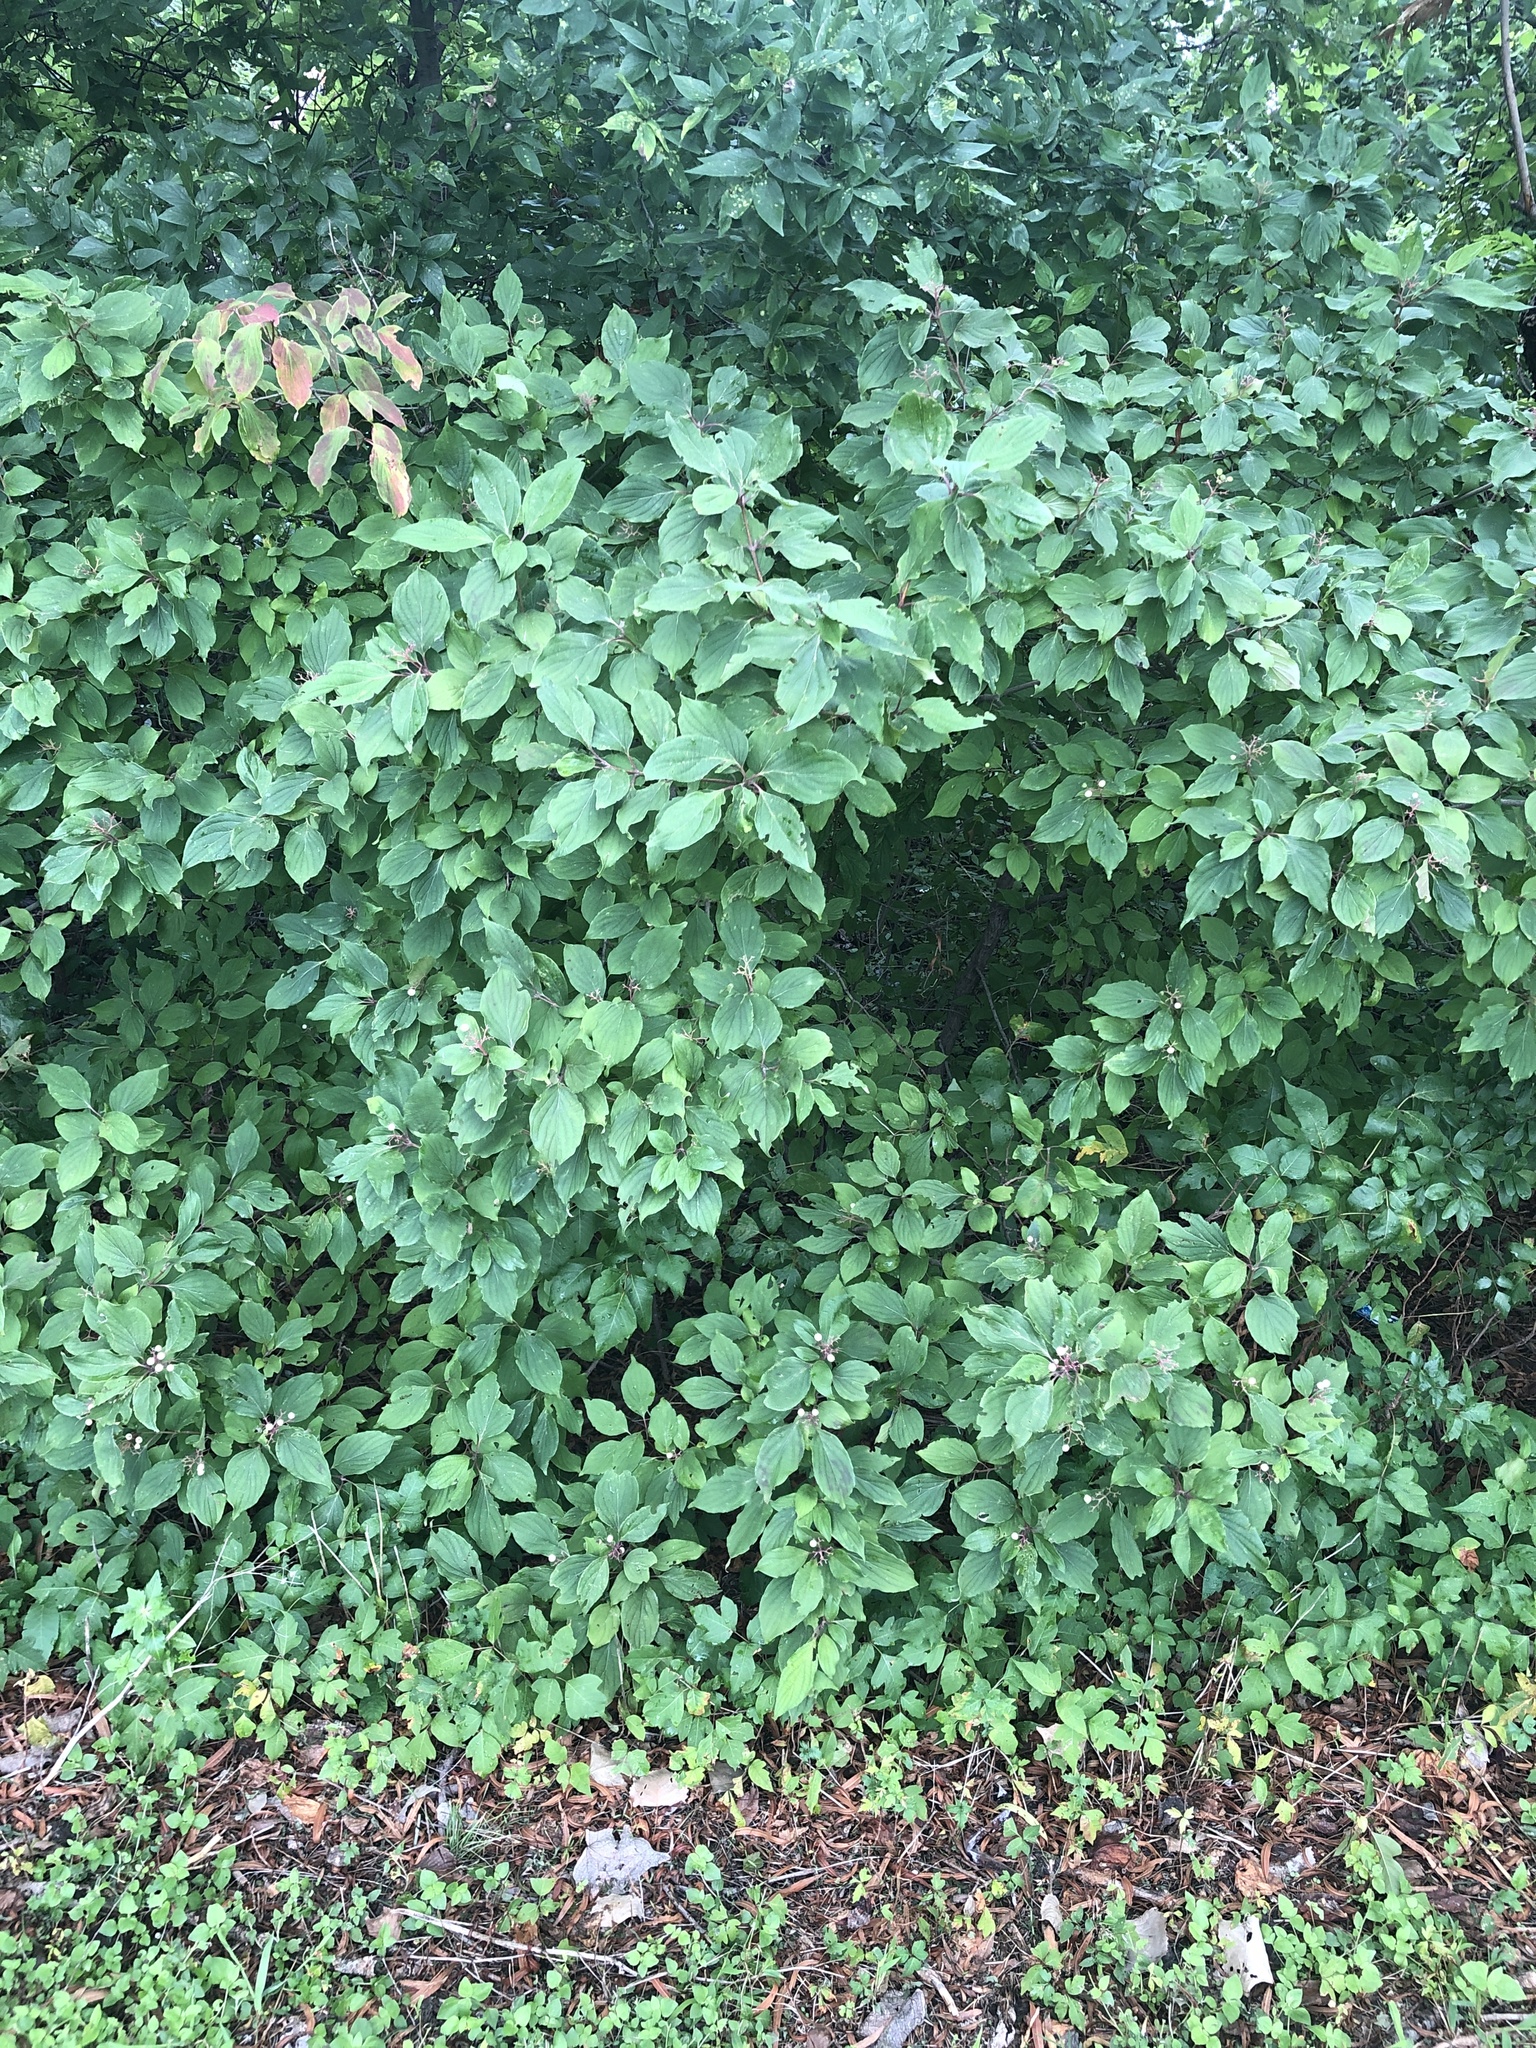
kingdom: Plantae
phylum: Tracheophyta
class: Magnoliopsida
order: Cornales
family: Cornaceae
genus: Cornus
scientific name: Cornus drummondii
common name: Rough-leaf dogwood
